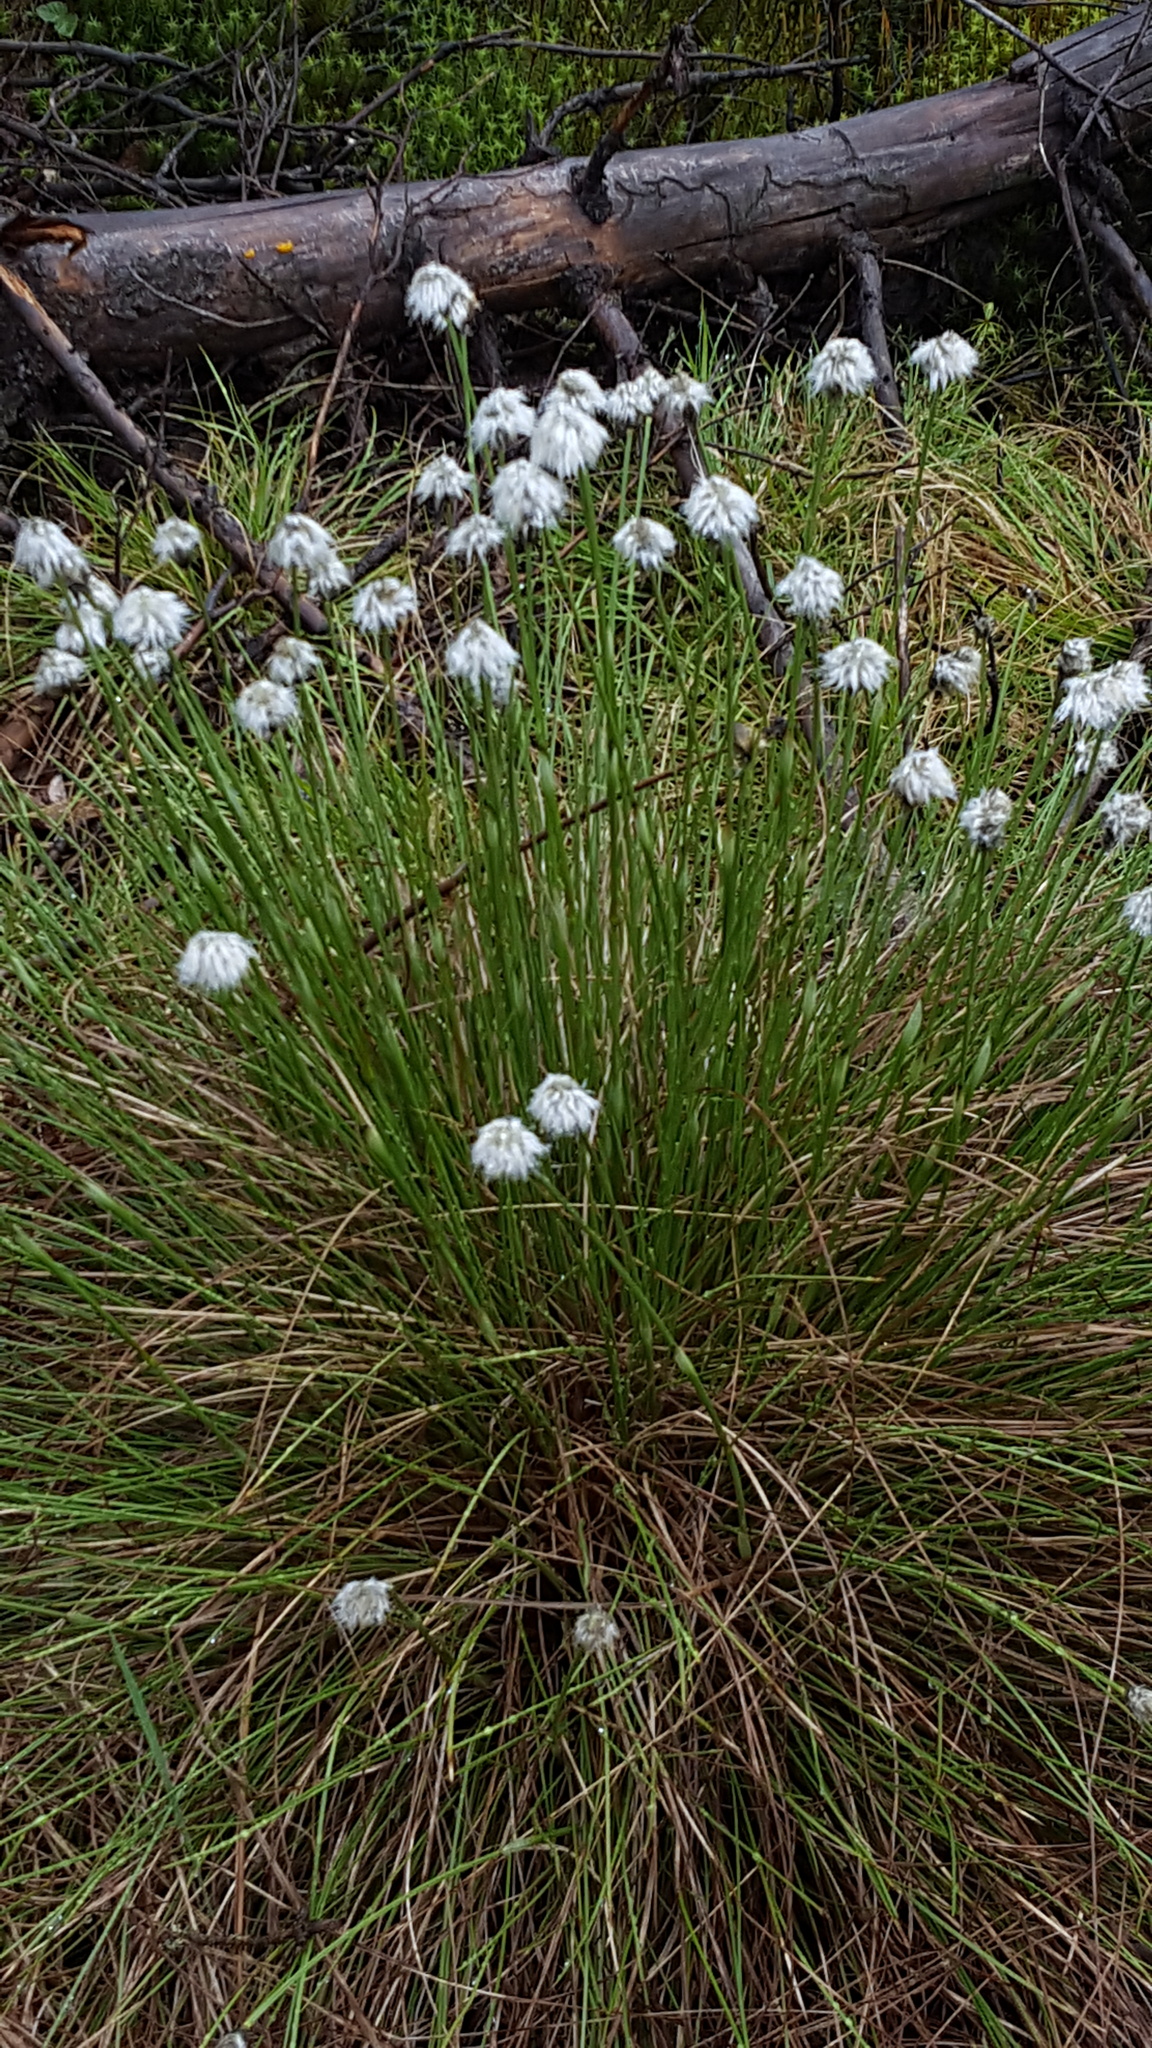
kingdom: Plantae
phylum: Tracheophyta
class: Liliopsida
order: Poales
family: Cyperaceae
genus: Eriophorum
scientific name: Eriophorum vaginatum
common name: Hare's-tail cottongrass
